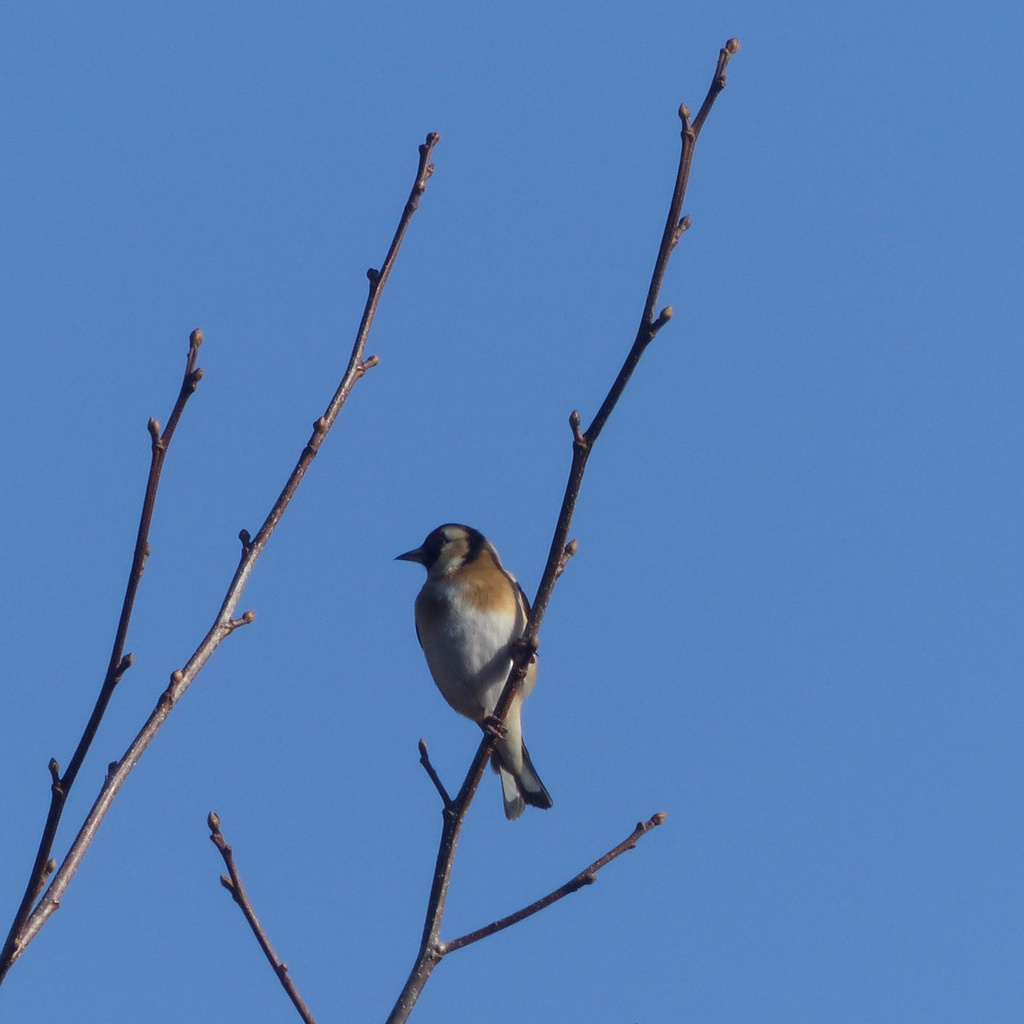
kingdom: Animalia
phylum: Chordata
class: Aves
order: Passeriformes
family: Fringillidae
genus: Carduelis
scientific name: Carduelis carduelis
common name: European goldfinch
